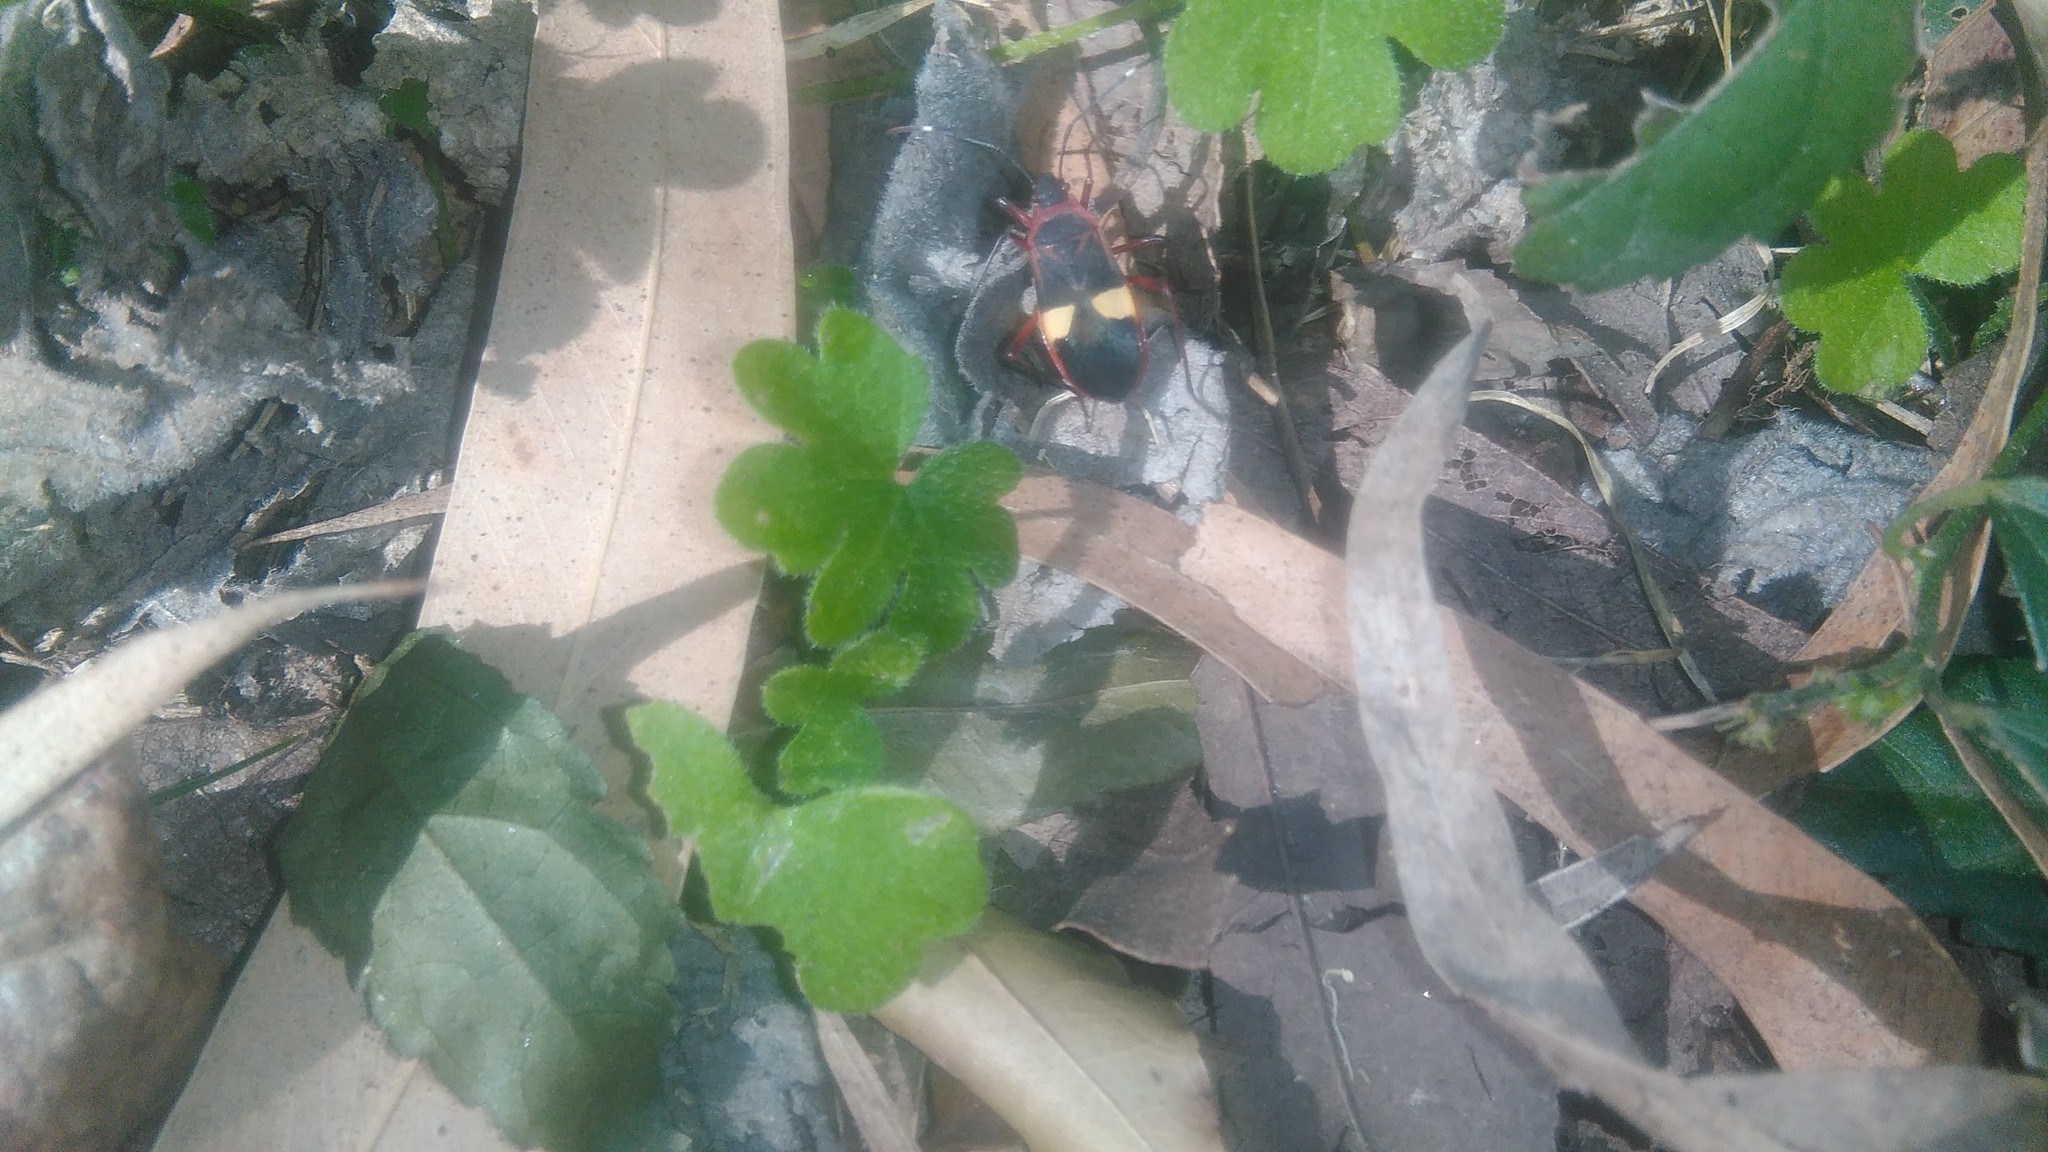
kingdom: Animalia
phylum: Arthropoda
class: Insecta
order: Hemiptera
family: Pyrrhocoridae
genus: Dysdercus
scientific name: Dysdercus albofasciatus
